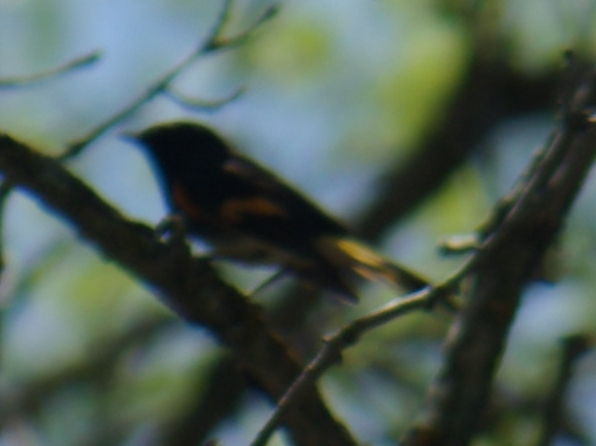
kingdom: Animalia
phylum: Chordata
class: Aves
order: Passeriformes
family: Parulidae
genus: Setophaga
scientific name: Setophaga ruticilla
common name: American redstart
